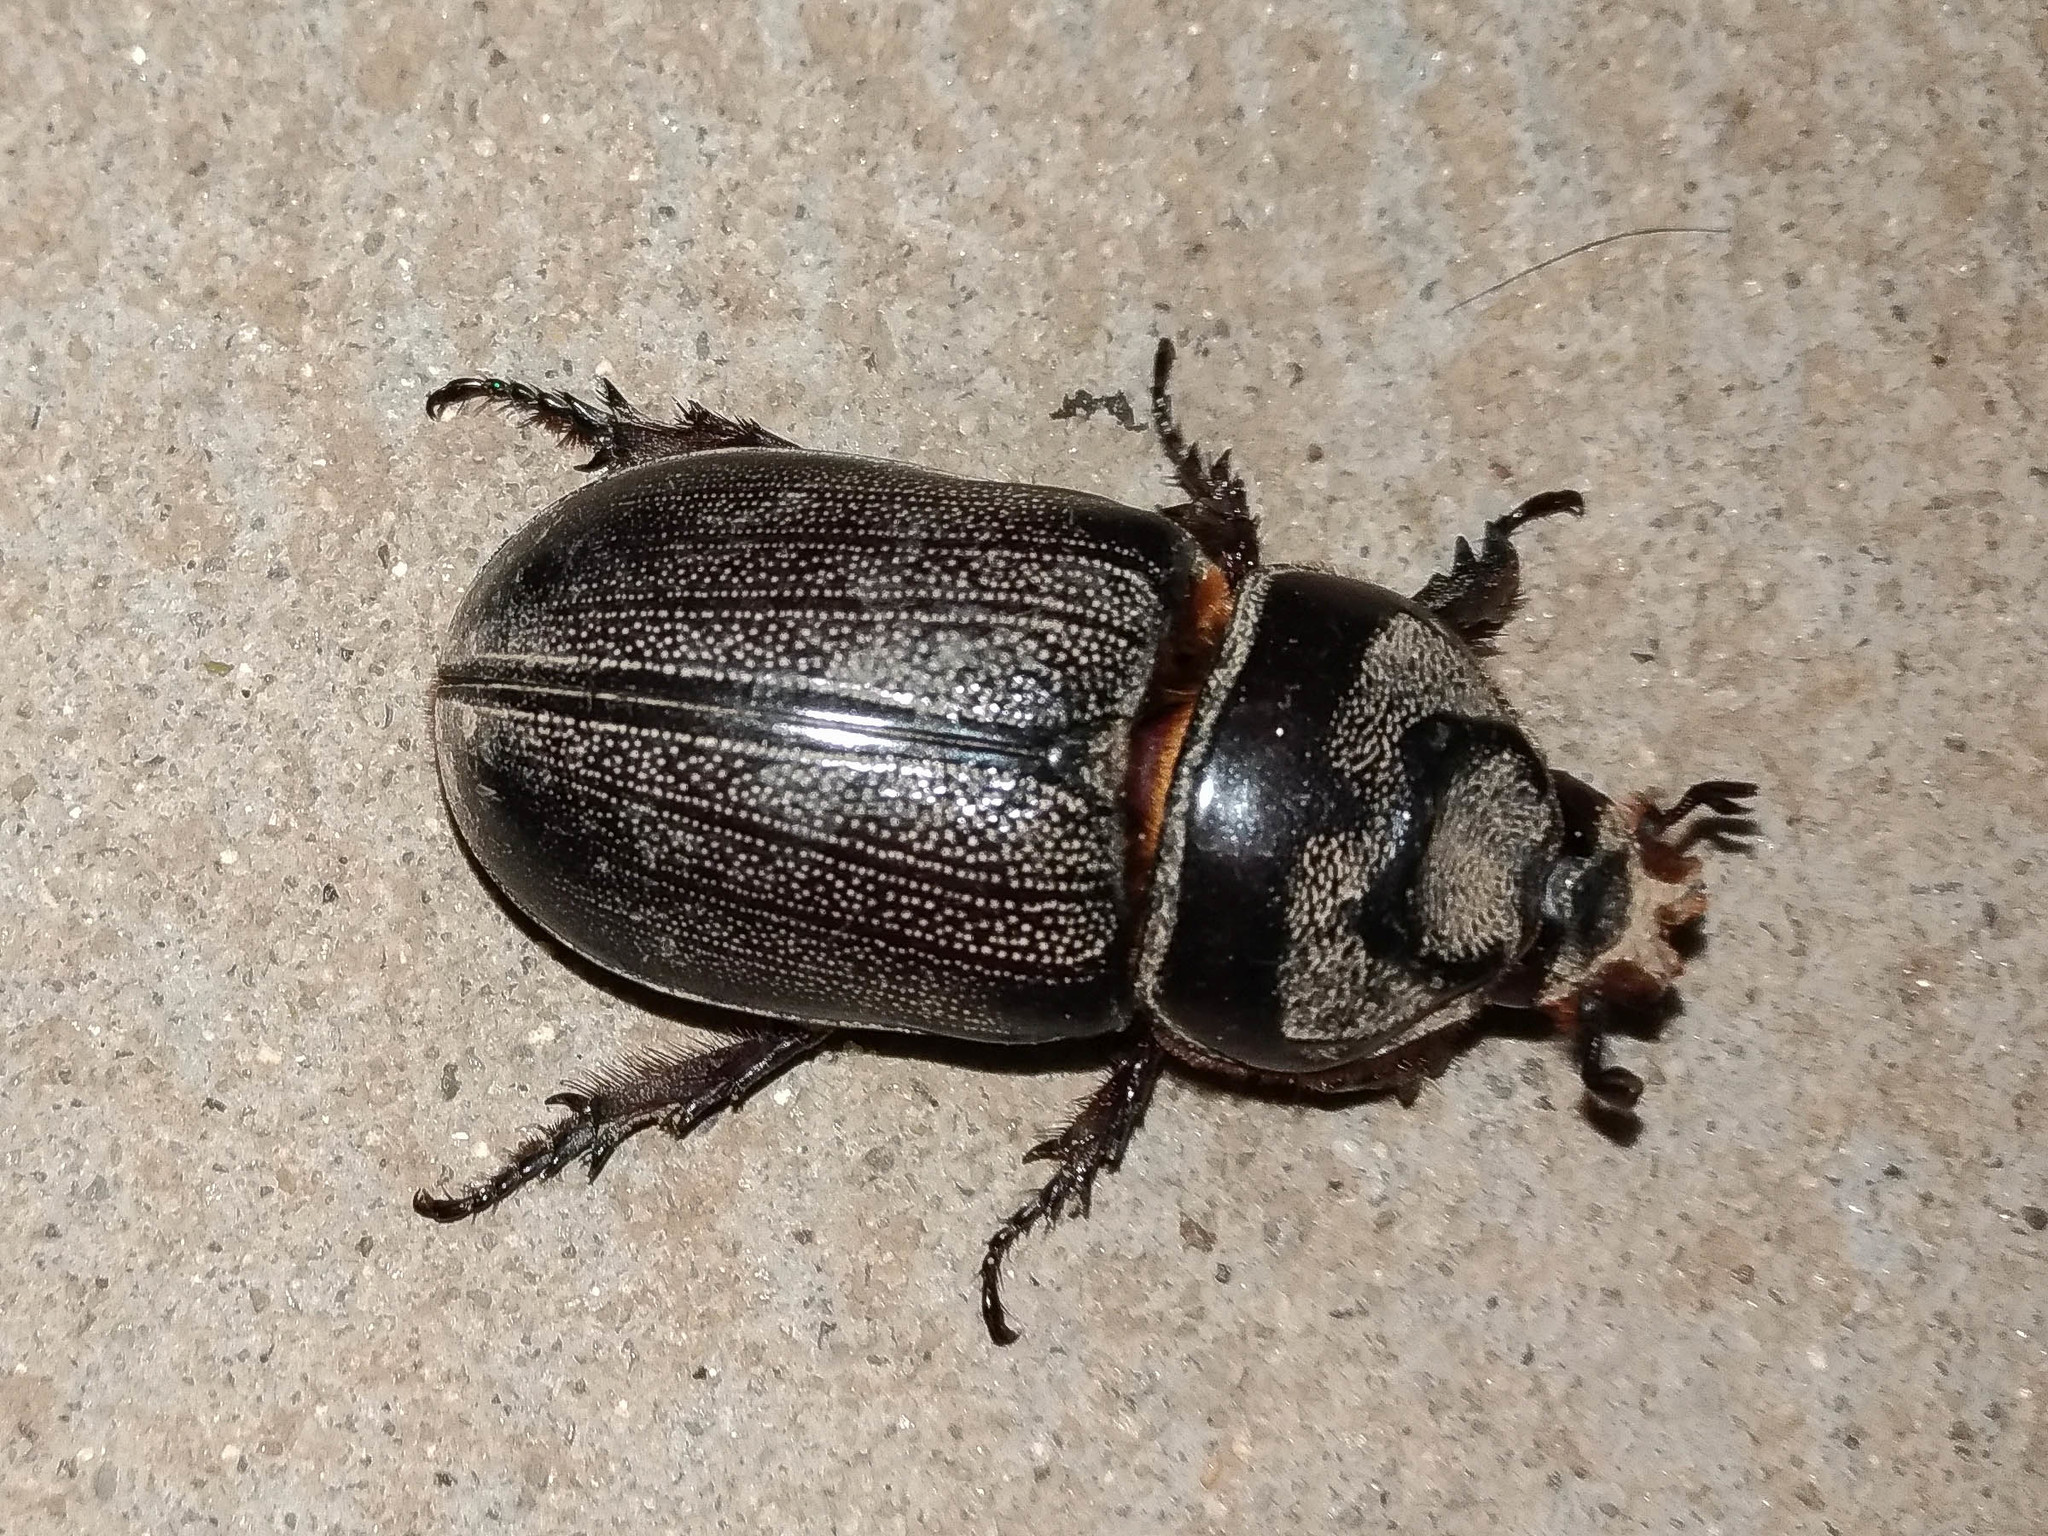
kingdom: Animalia
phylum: Arthropoda
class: Insecta
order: Coleoptera
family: Scarabaeidae
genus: Oryctes
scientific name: Oryctes rhinoceros
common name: Coconut rhinoceros beetle
